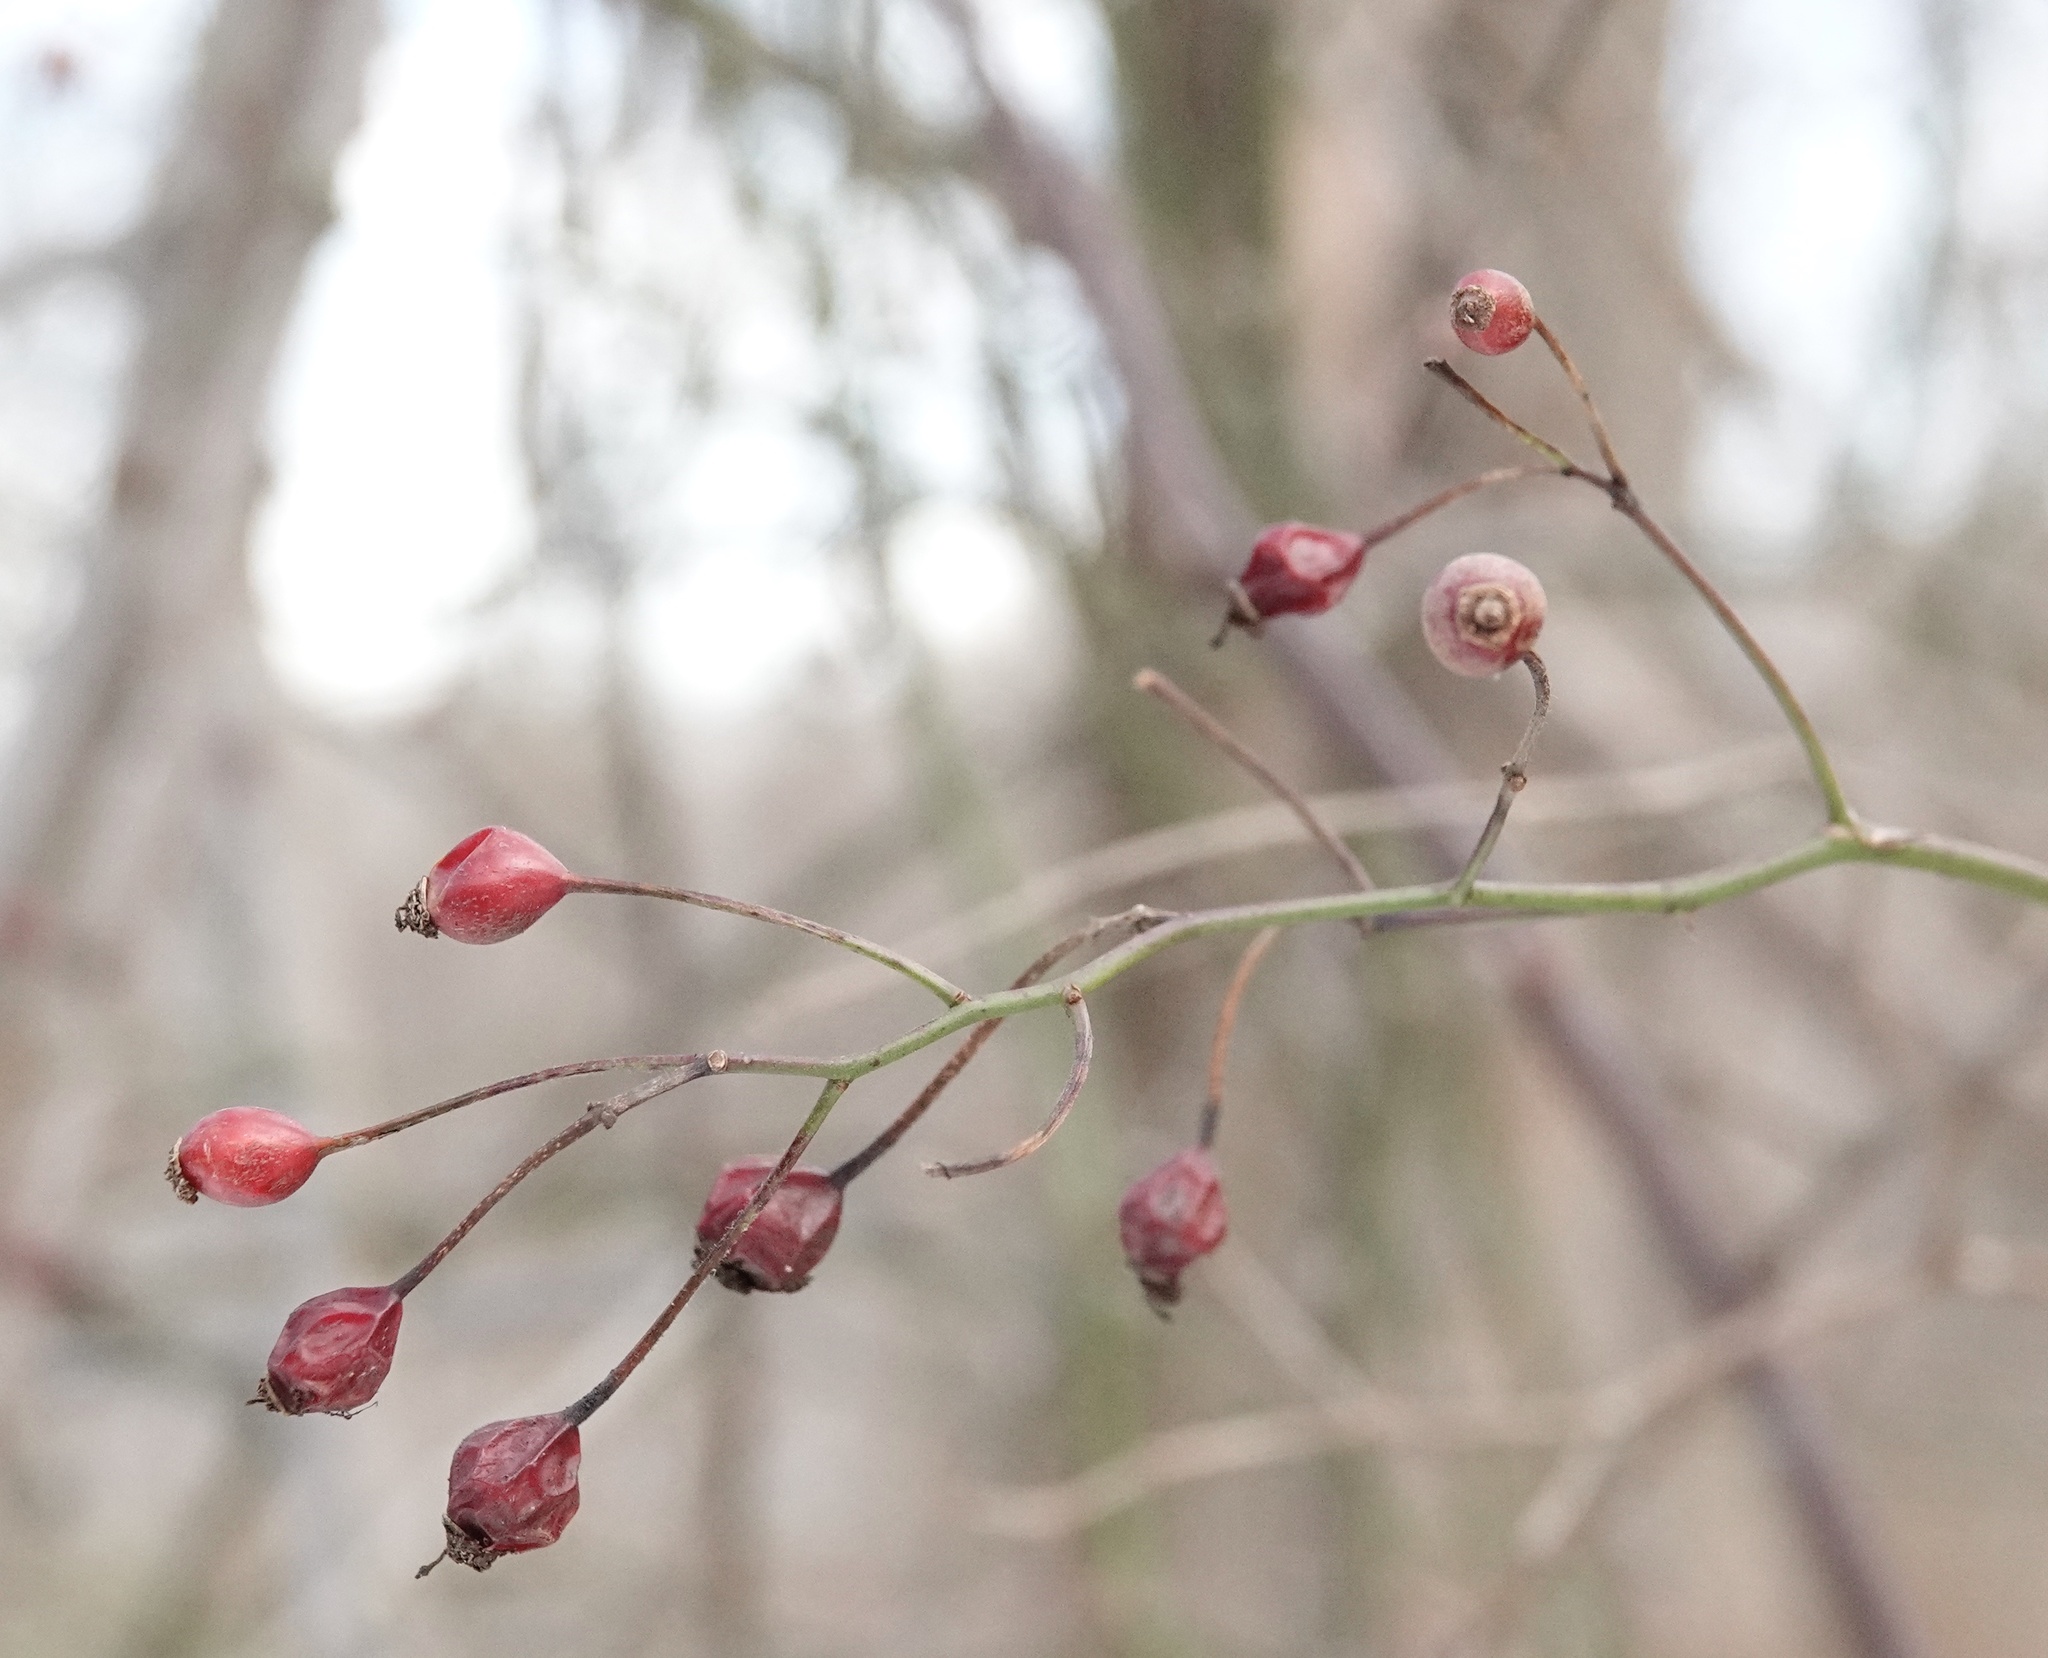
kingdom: Plantae
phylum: Tracheophyta
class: Magnoliopsida
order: Rosales
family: Rosaceae
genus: Rosa
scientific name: Rosa multiflora
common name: Multiflora rose
